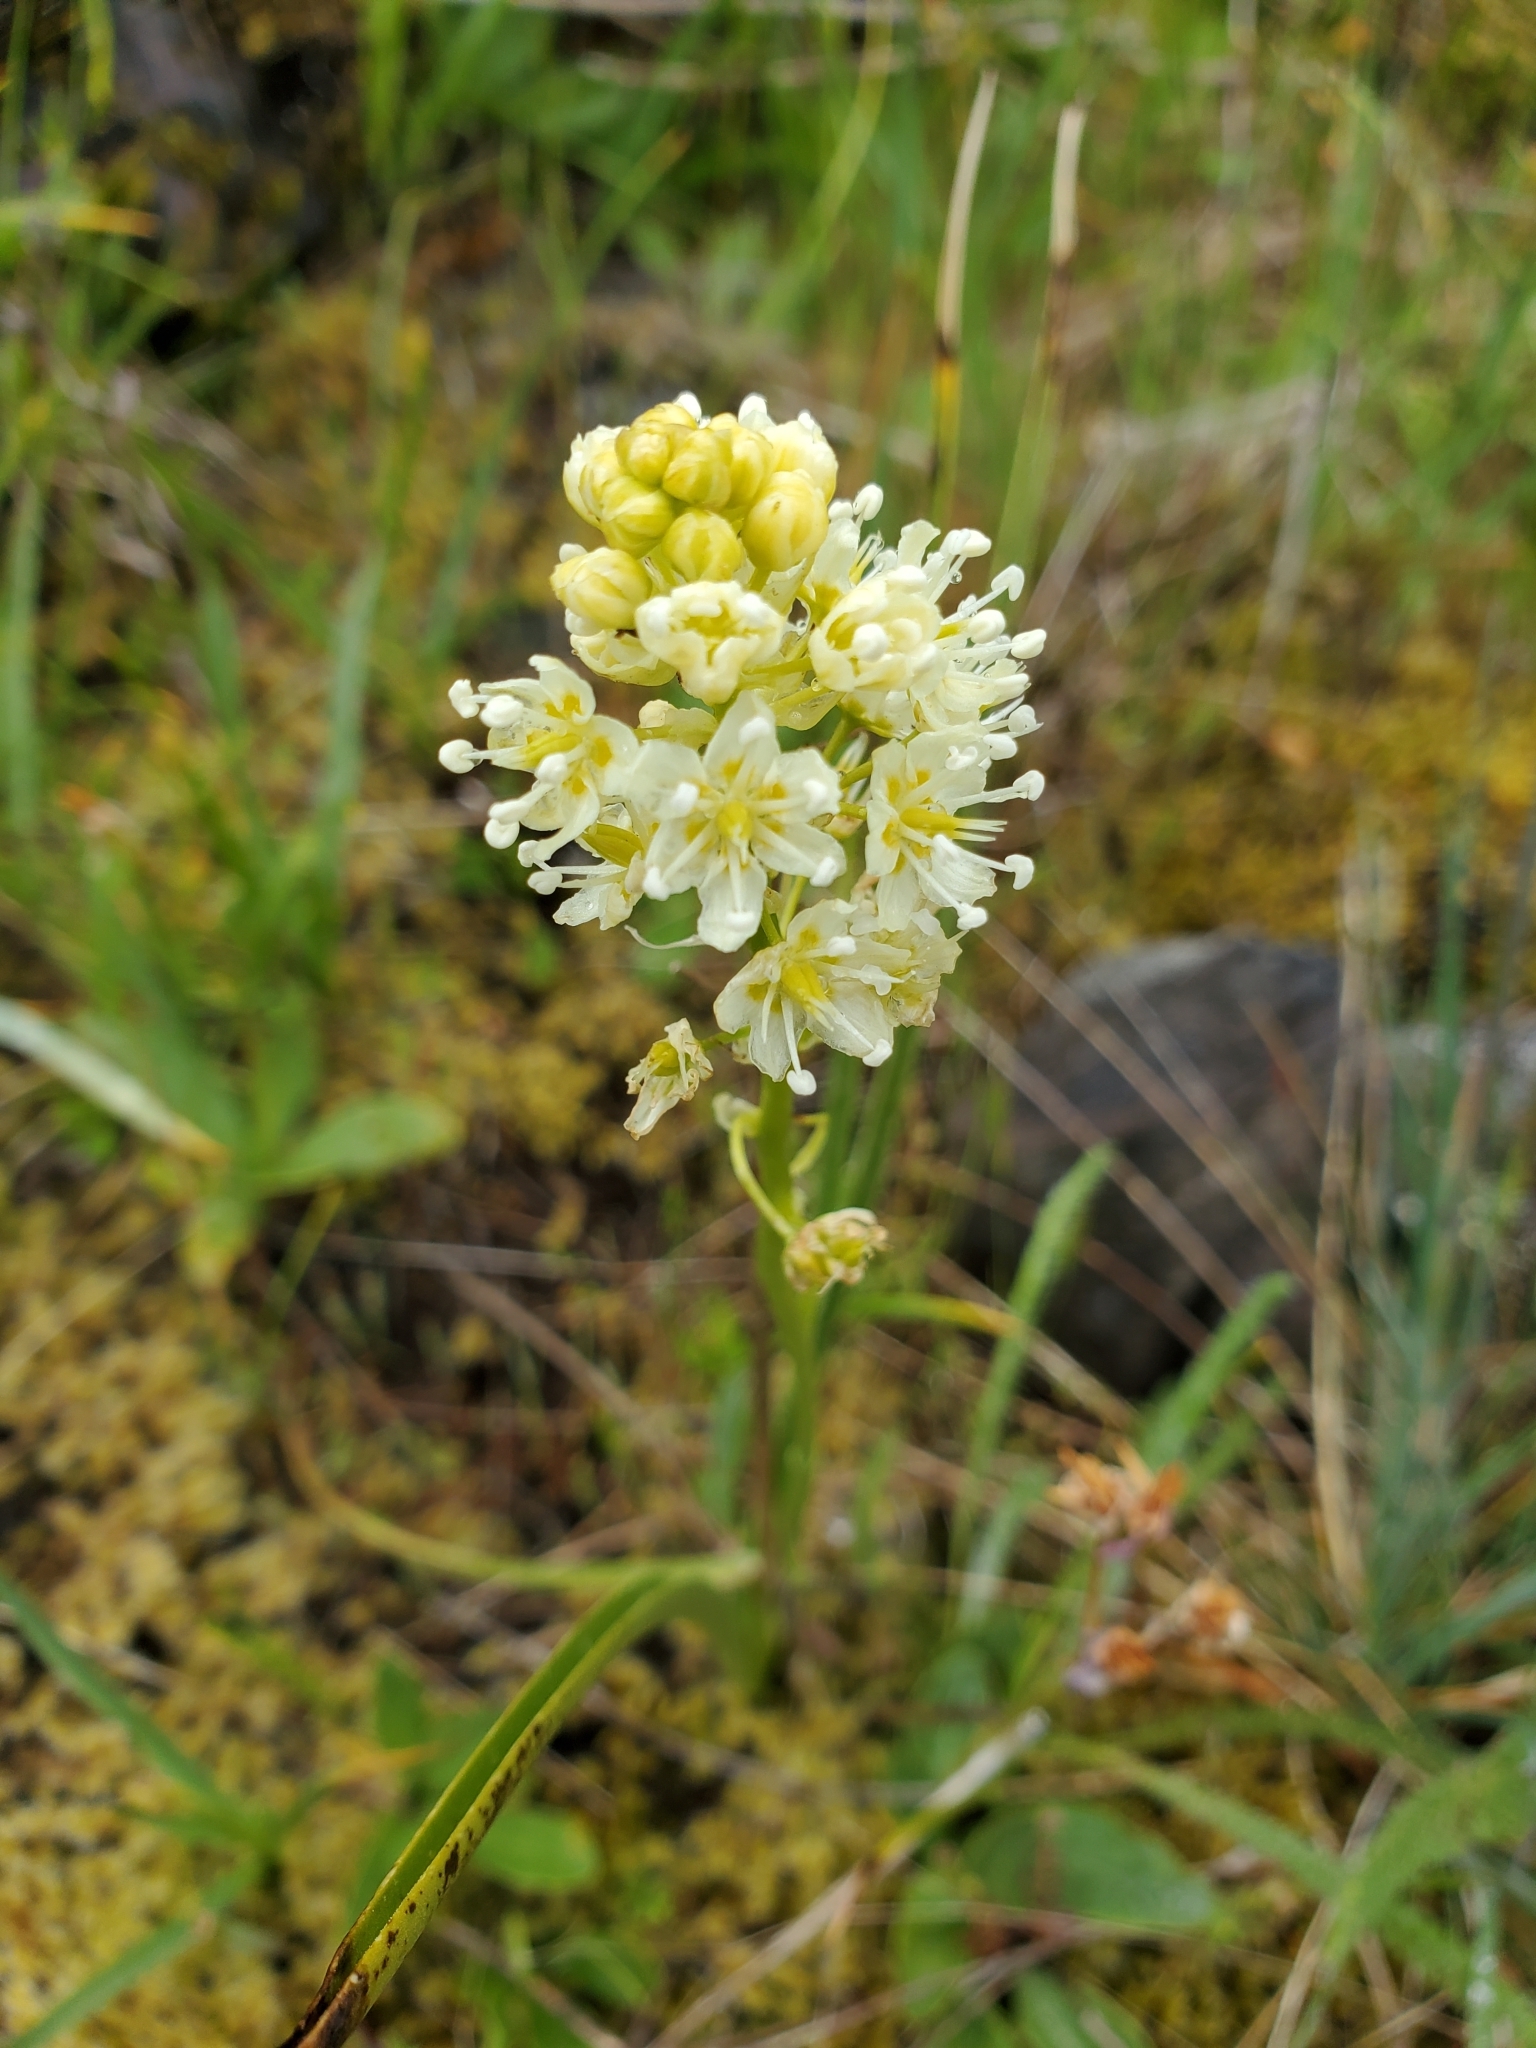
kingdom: Plantae
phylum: Tracheophyta
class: Liliopsida
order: Liliales
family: Melanthiaceae
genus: Toxicoscordion
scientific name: Toxicoscordion venenosum
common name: Meadow death camas
